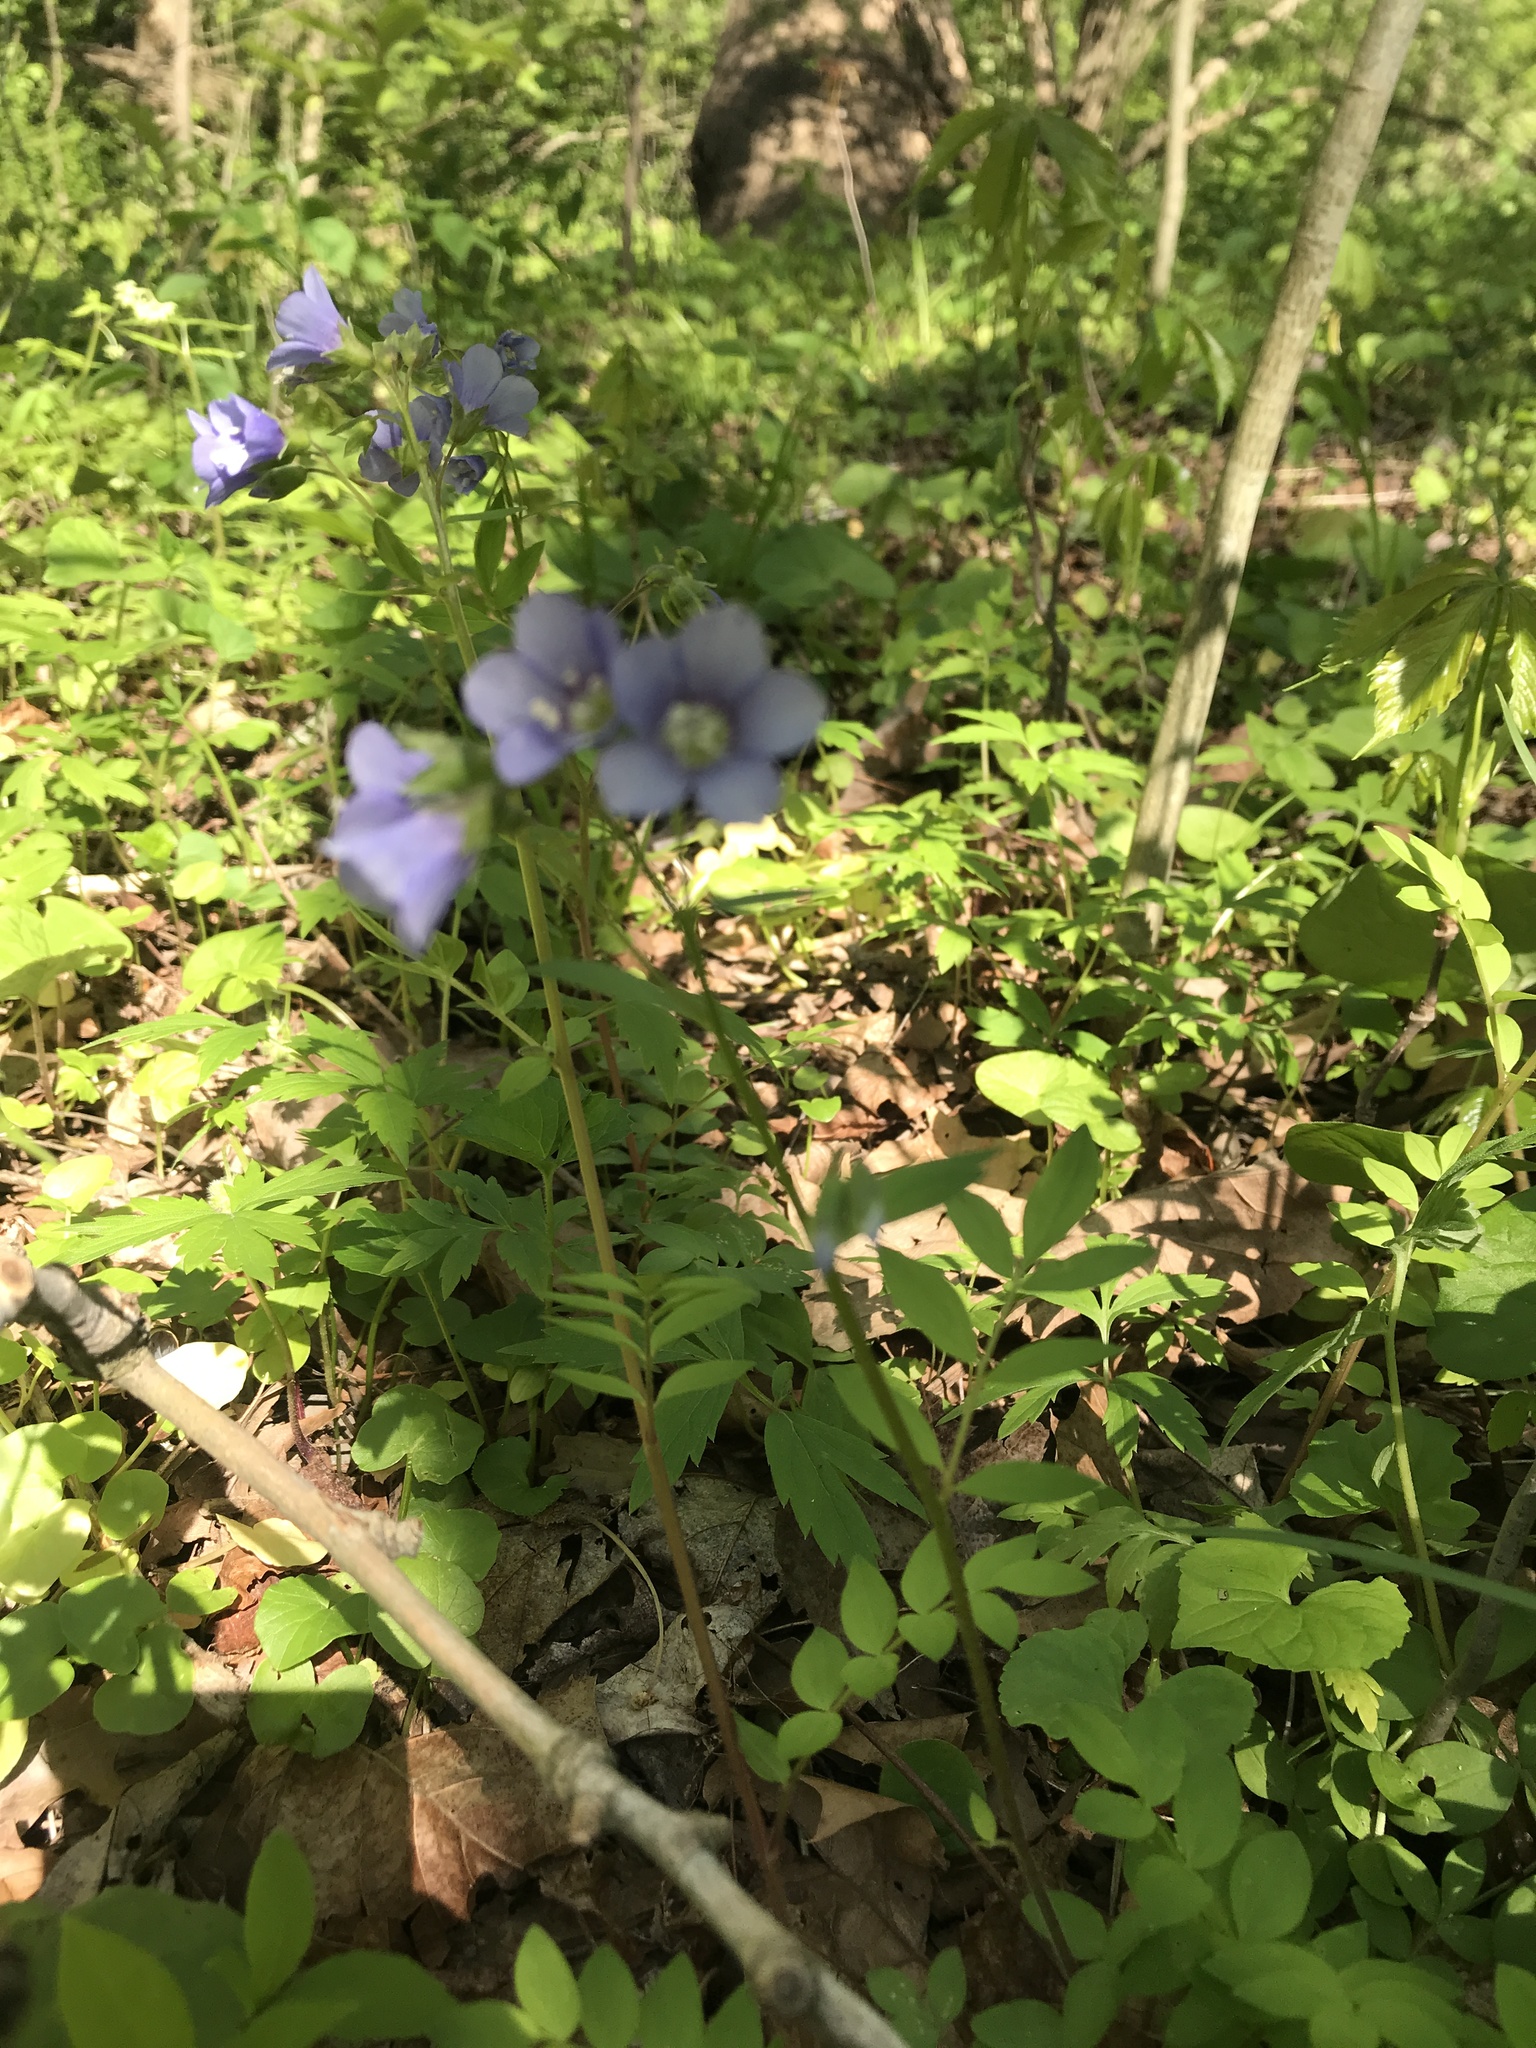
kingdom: Plantae
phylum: Tracheophyta
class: Magnoliopsida
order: Ericales
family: Polemoniaceae
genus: Polemonium
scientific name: Polemonium reptans
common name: Creeping jacob's-ladder
